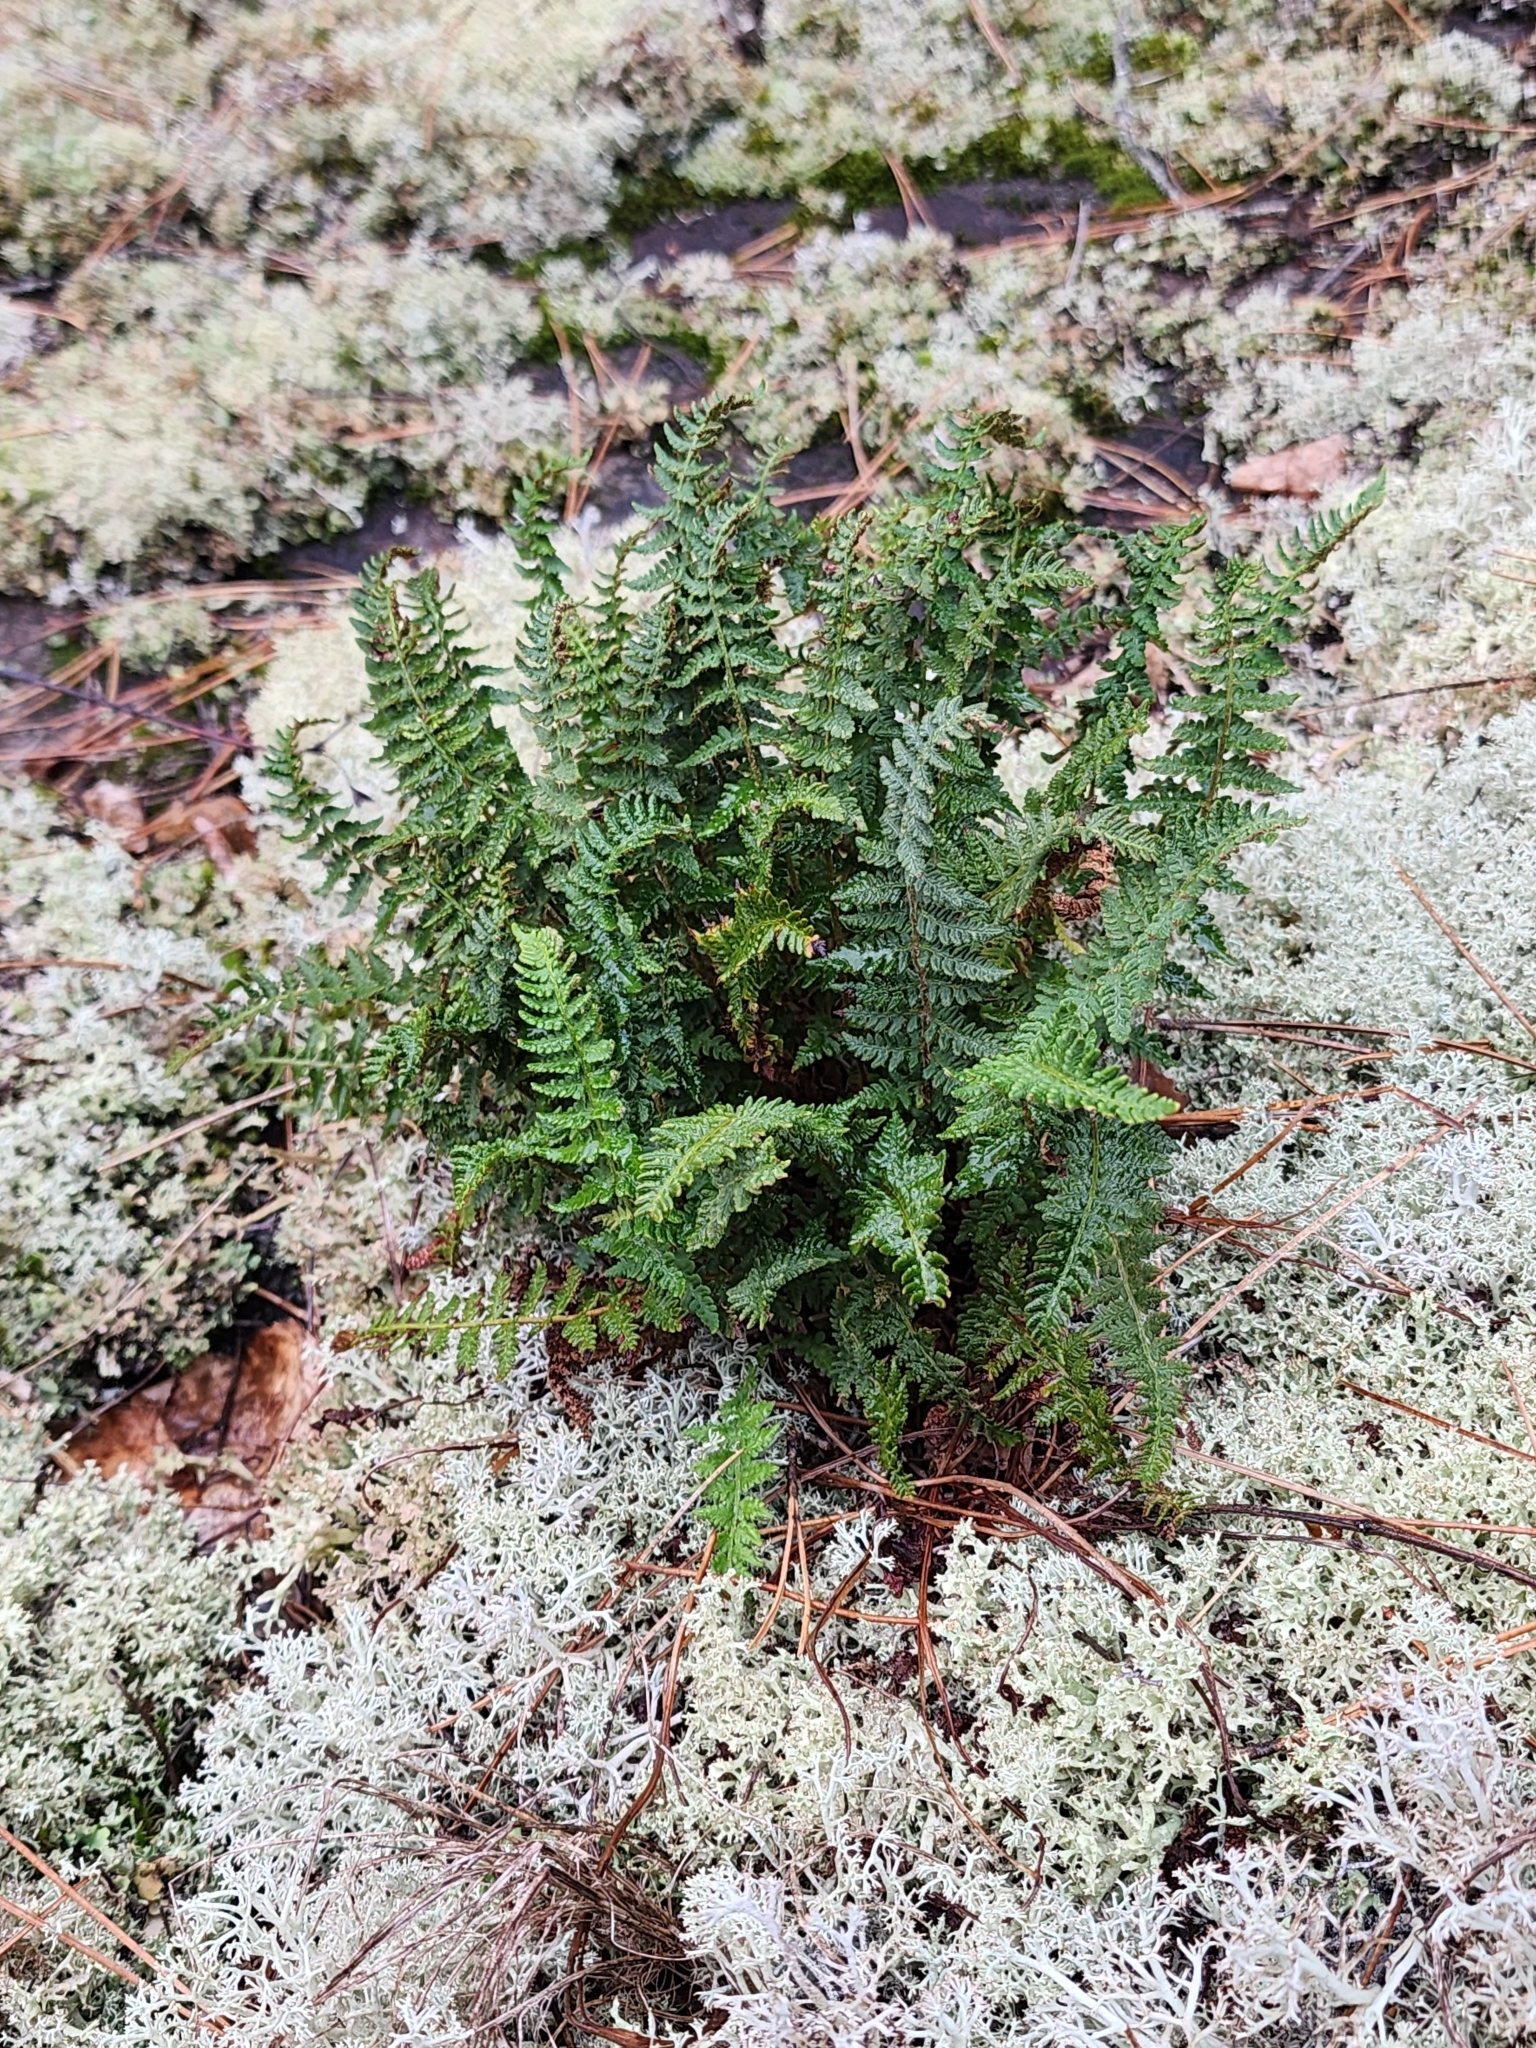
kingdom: Plantae
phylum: Tracheophyta
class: Polypodiopsida
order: Polypodiales
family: Woodsiaceae
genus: Woodsia
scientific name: Woodsia ilvensis
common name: Fragrant woodsia
